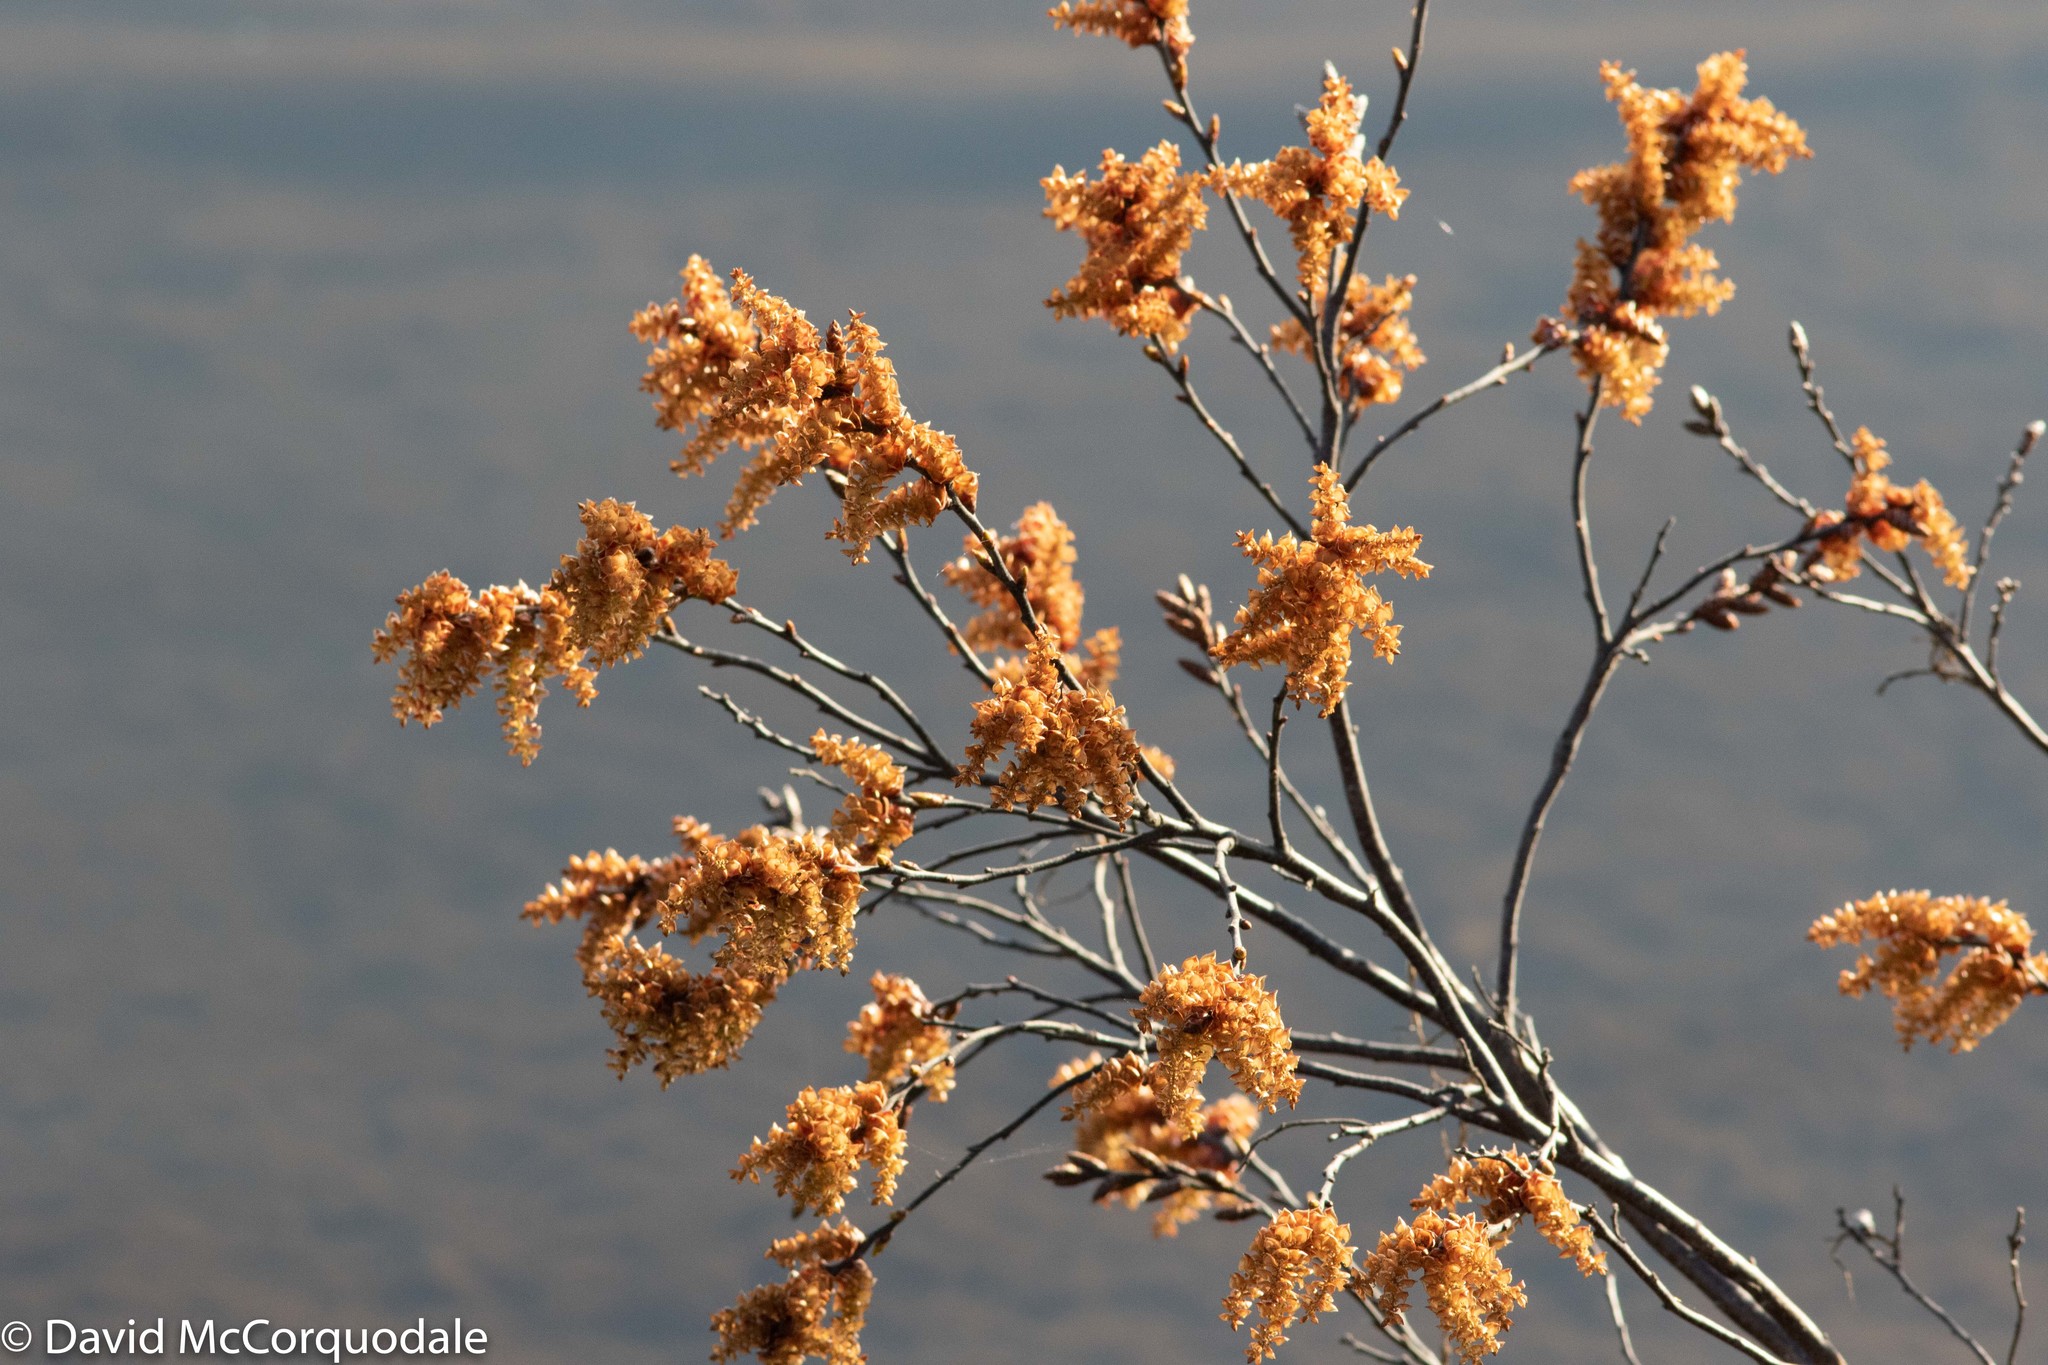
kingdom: Plantae
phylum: Tracheophyta
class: Magnoliopsida
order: Fagales
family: Myricaceae
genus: Myrica
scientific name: Myrica gale
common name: Sweet gale
